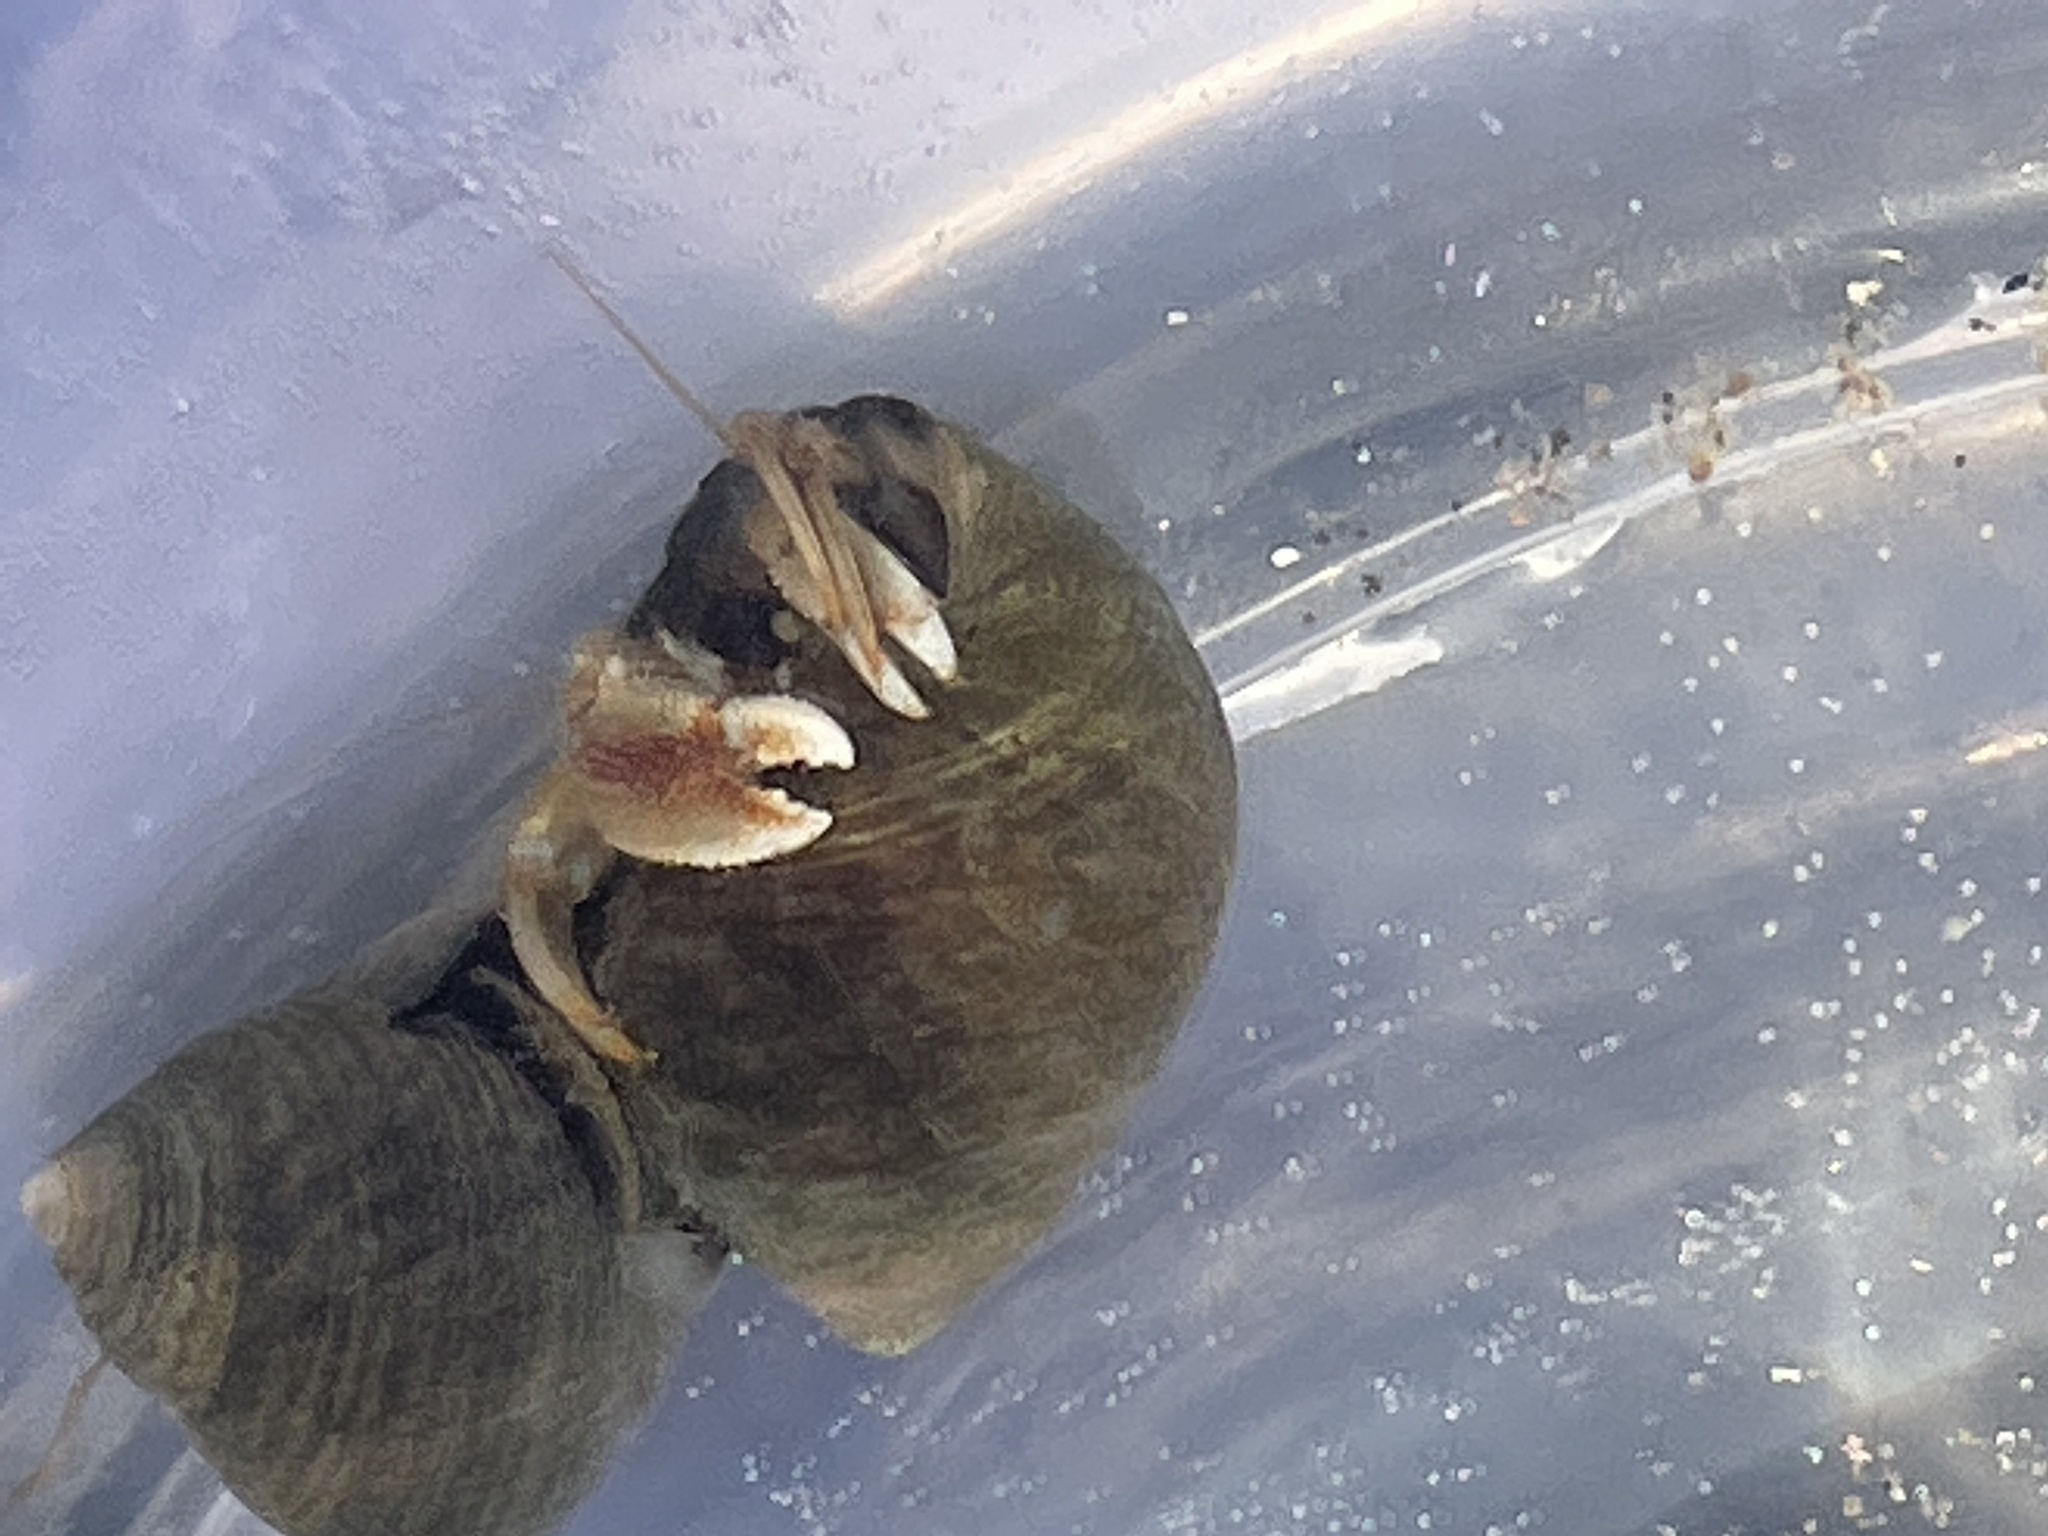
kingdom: Animalia
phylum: Arthropoda
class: Malacostraca
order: Decapoda
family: Paguridae
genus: Pagurus
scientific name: Pagurus bernhardus
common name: Hermit crab
